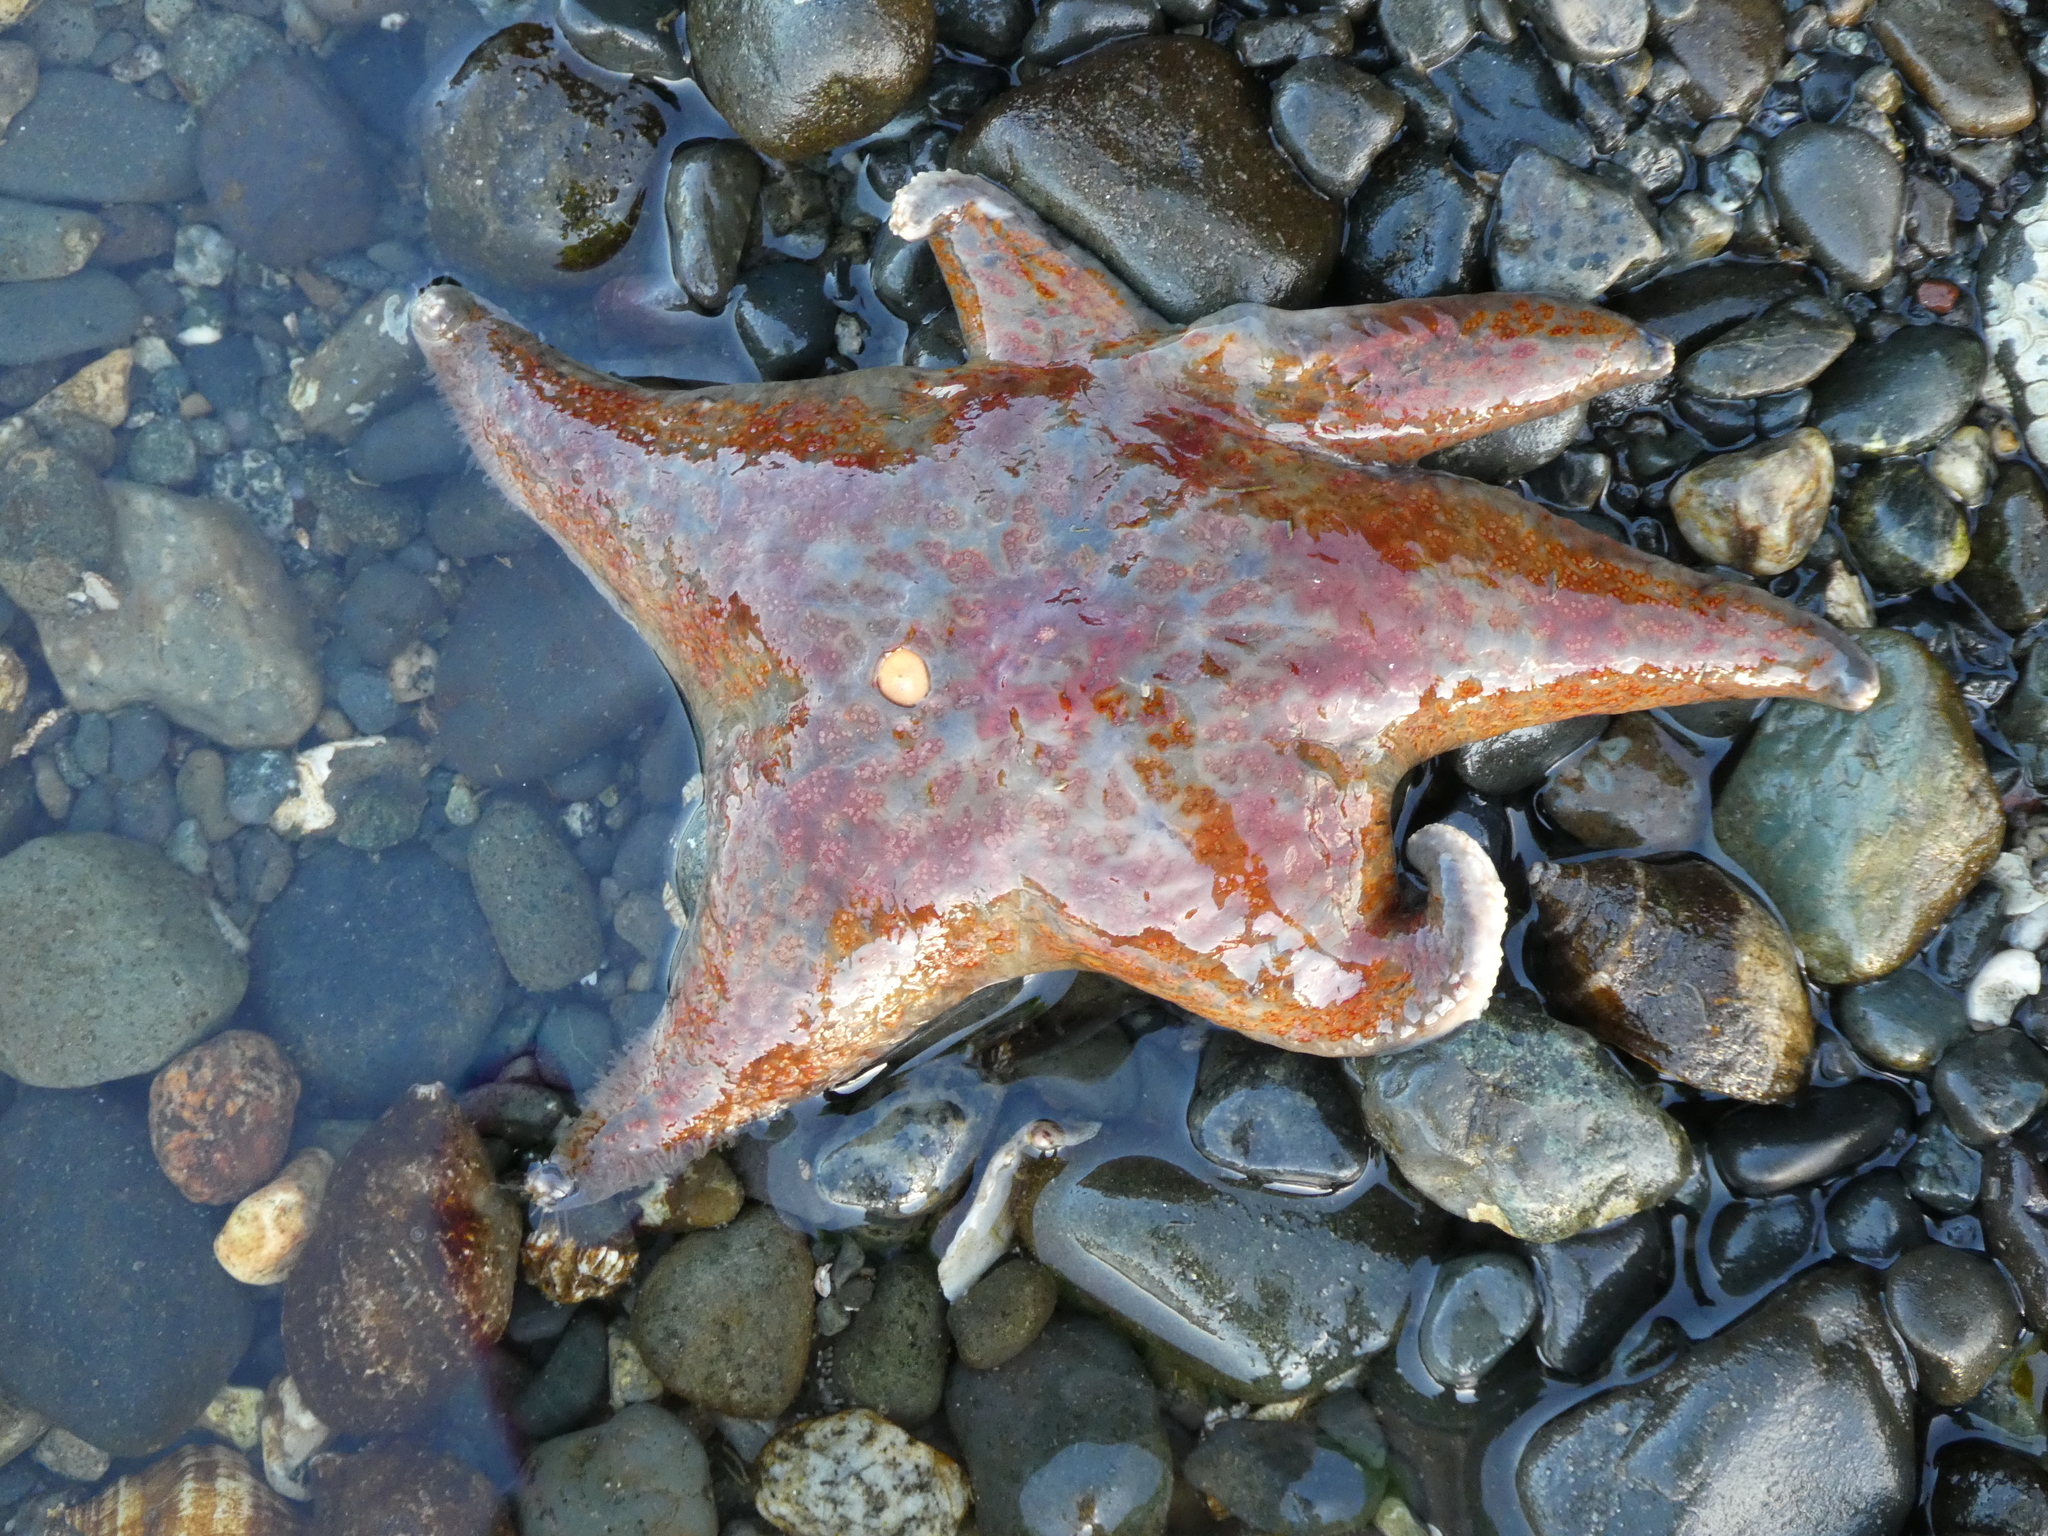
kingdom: Animalia
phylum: Echinodermata
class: Asteroidea
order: Valvatida
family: Asteropseidae
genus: Dermasterias
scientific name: Dermasterias imbricata
